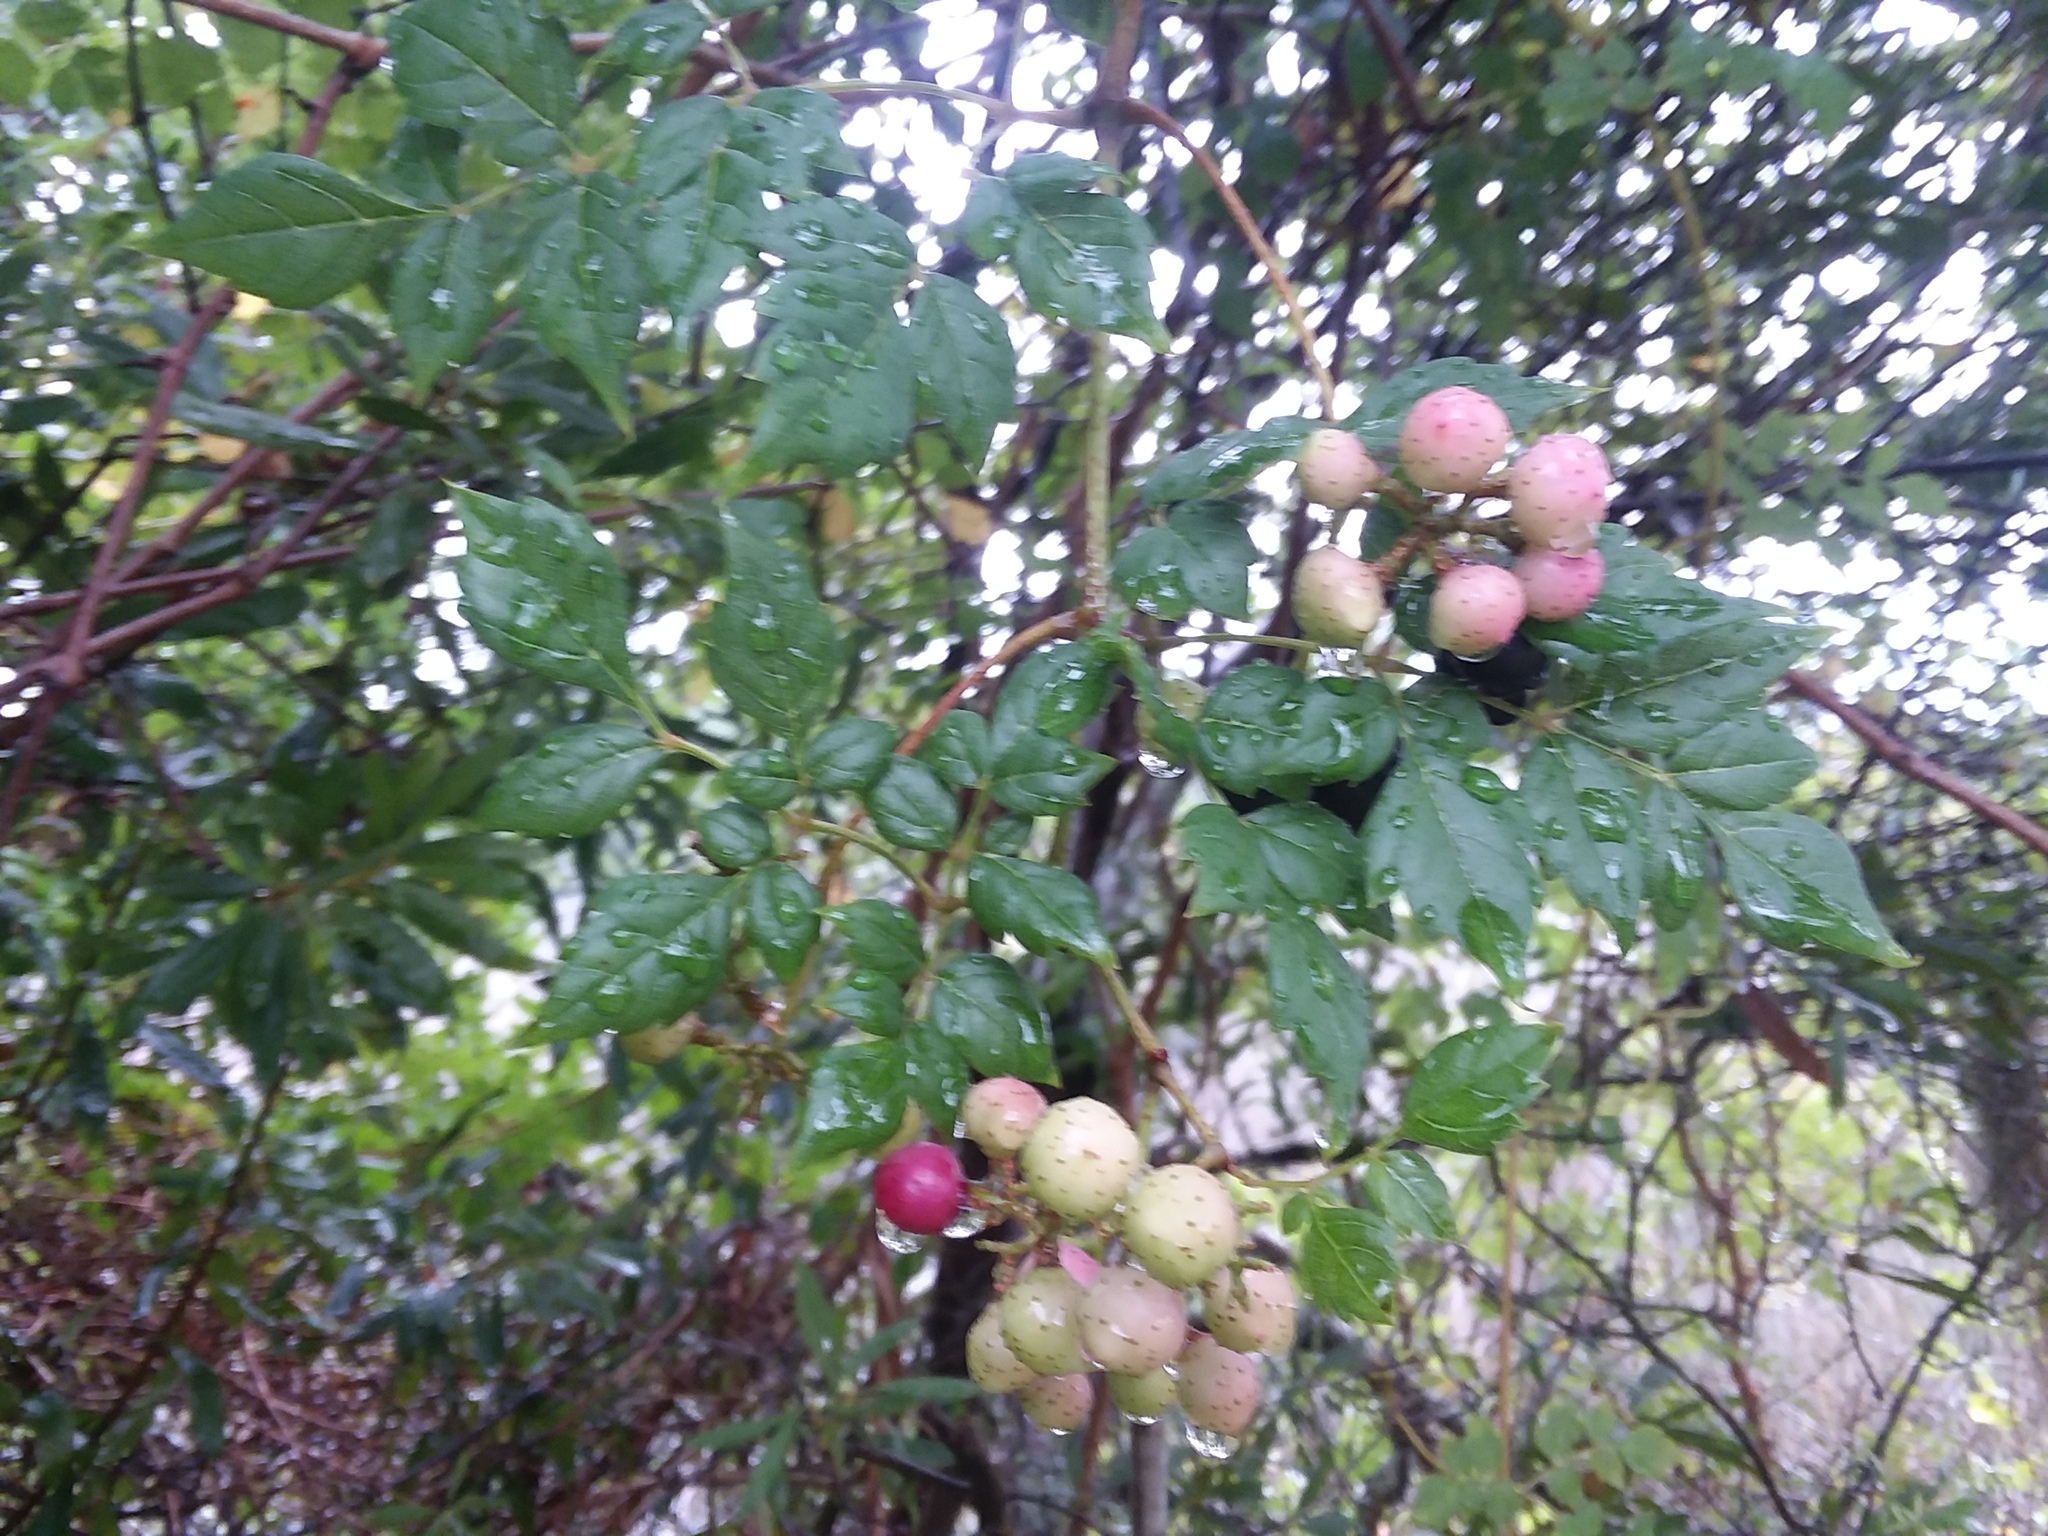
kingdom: Plantae
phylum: Tracheophyta
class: Magnoliopsida
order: Vitales
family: Vitaceae
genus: Nekemias
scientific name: Nekemias arborea
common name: Peppervine
